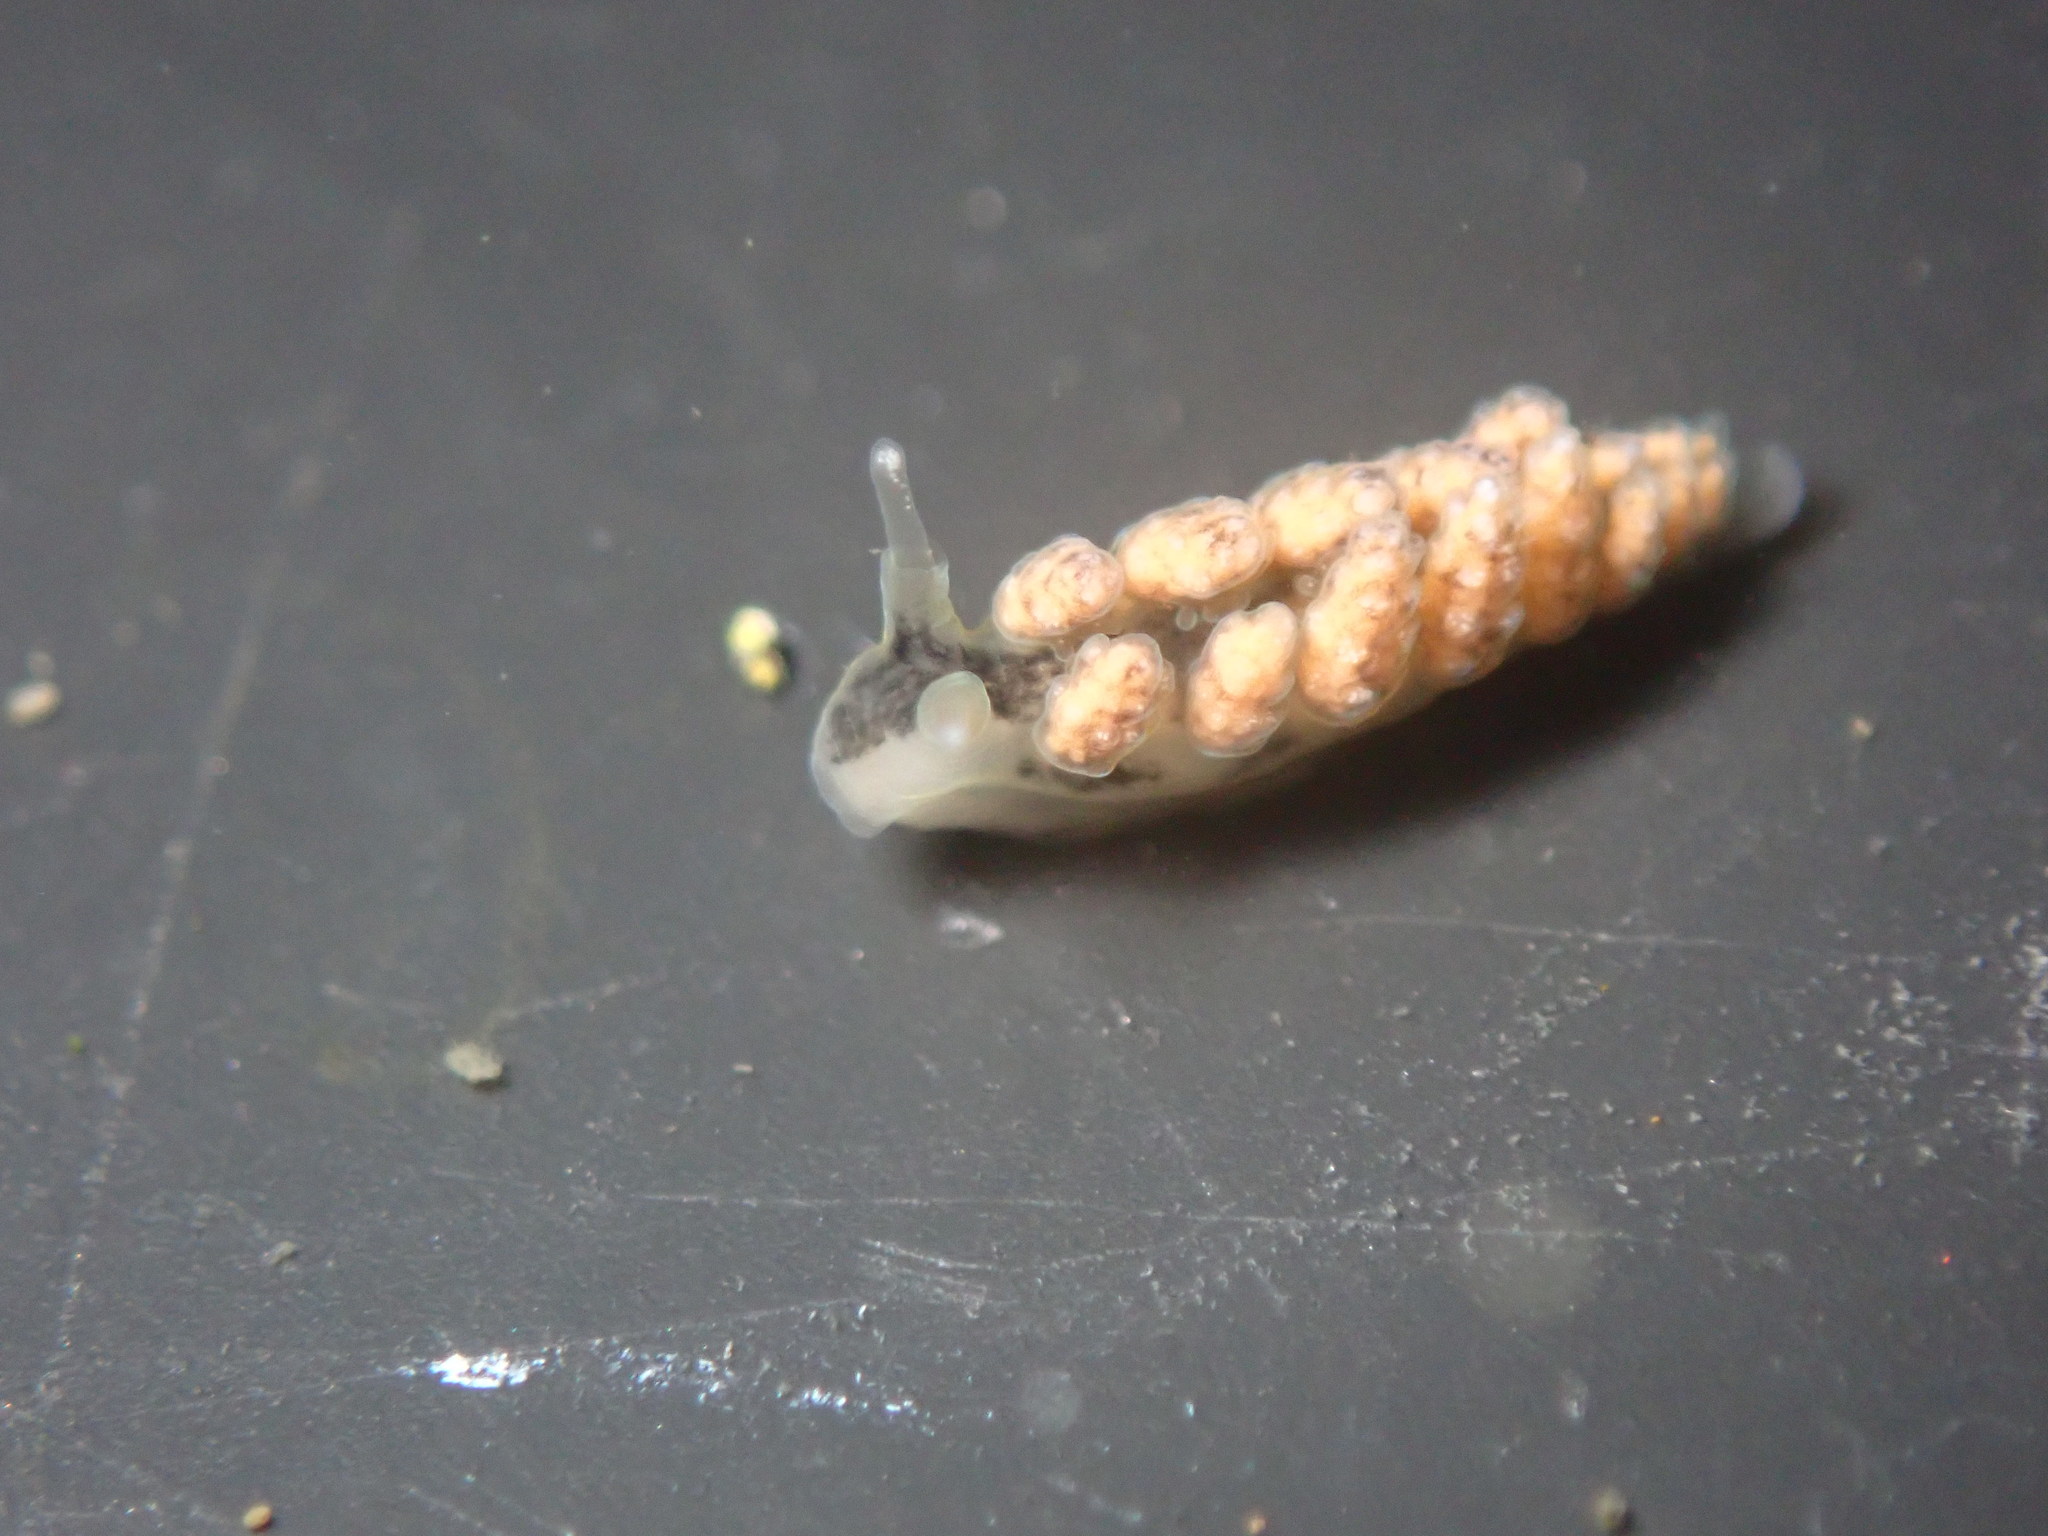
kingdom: Animalia
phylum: Mollusca
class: Gastropoda
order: Nudibranchia
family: Dotidae
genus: Doto
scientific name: Doto kya
